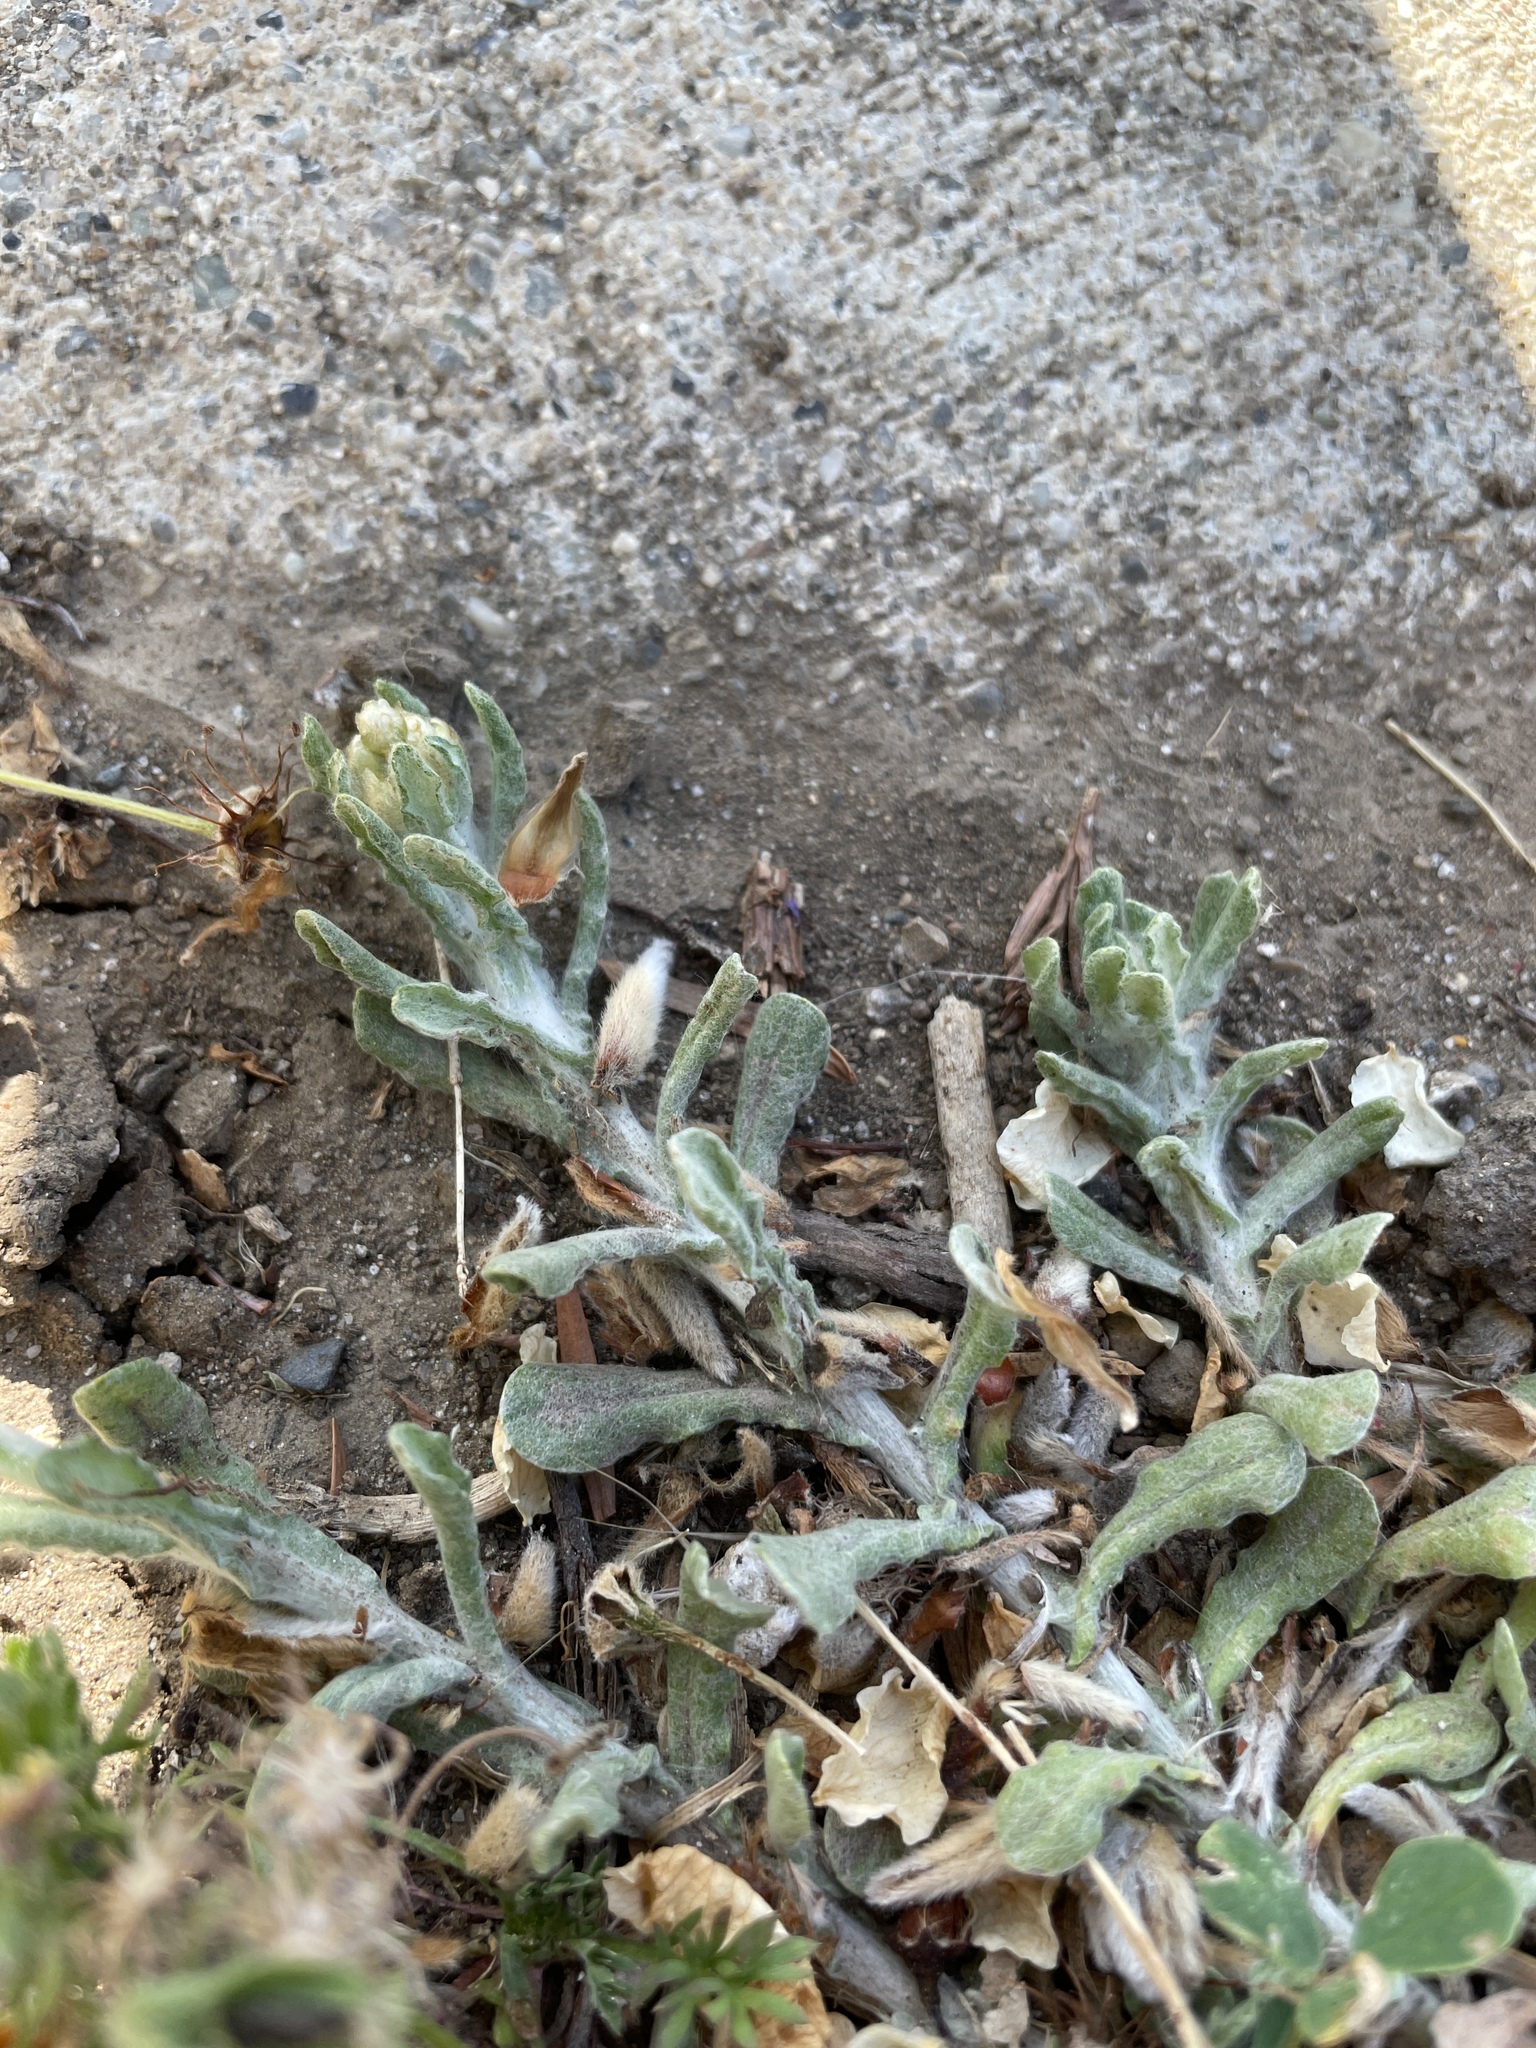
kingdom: Plantae
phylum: Tracheophyta
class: Magnoliopsida
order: Asterales
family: Asteraceae
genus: Helichrysum
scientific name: Helichrysum luteoalbum
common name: Daisy
